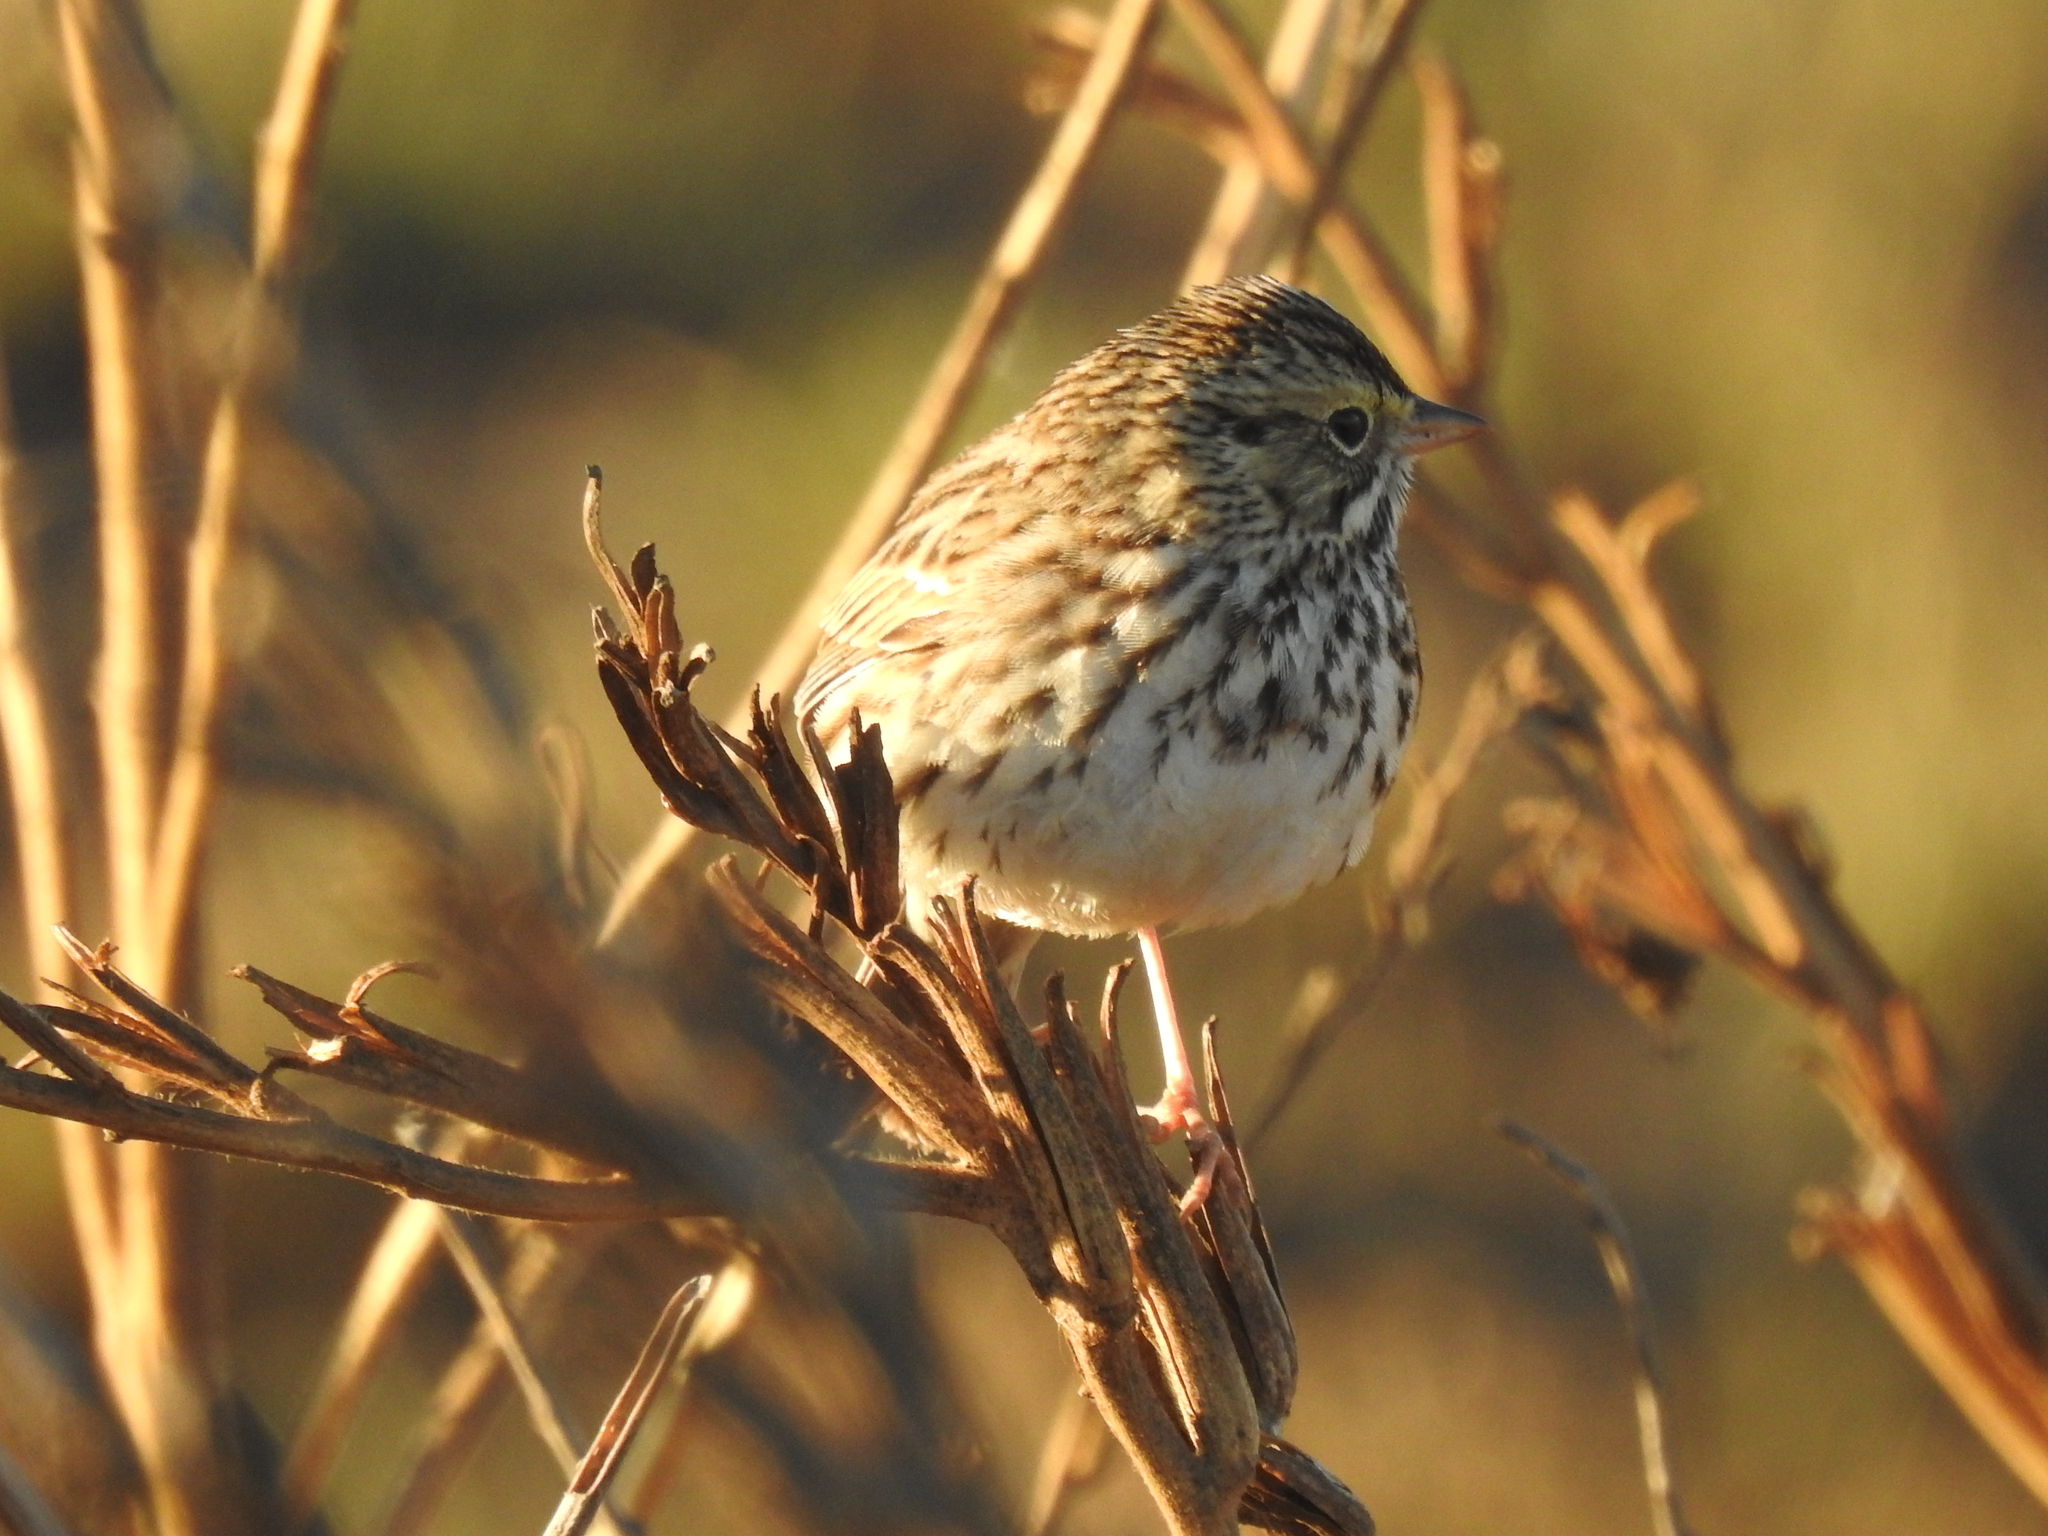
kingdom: Animalia
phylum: Chordata
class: Aves
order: Passeriformes
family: Passerellidae
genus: Passerculus
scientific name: Passerculus sandwichensis
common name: Savannah sparrow
